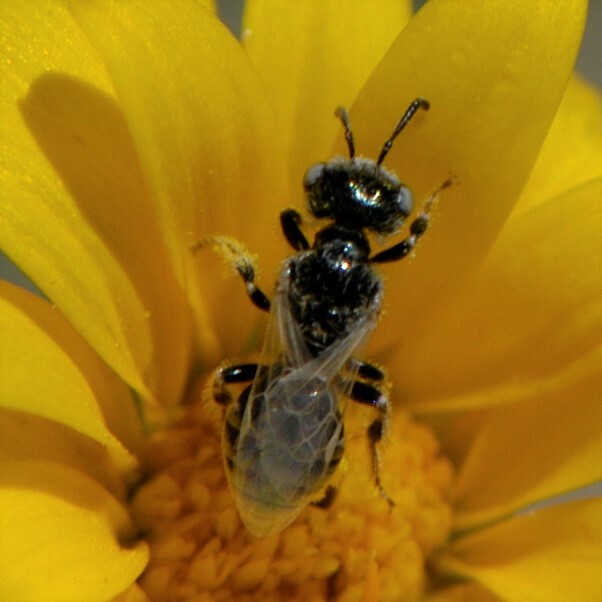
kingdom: Animalia
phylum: Arthropoda
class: Insecta
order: Hymenoptera
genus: Pentaperdita
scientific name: Pentaperdita
